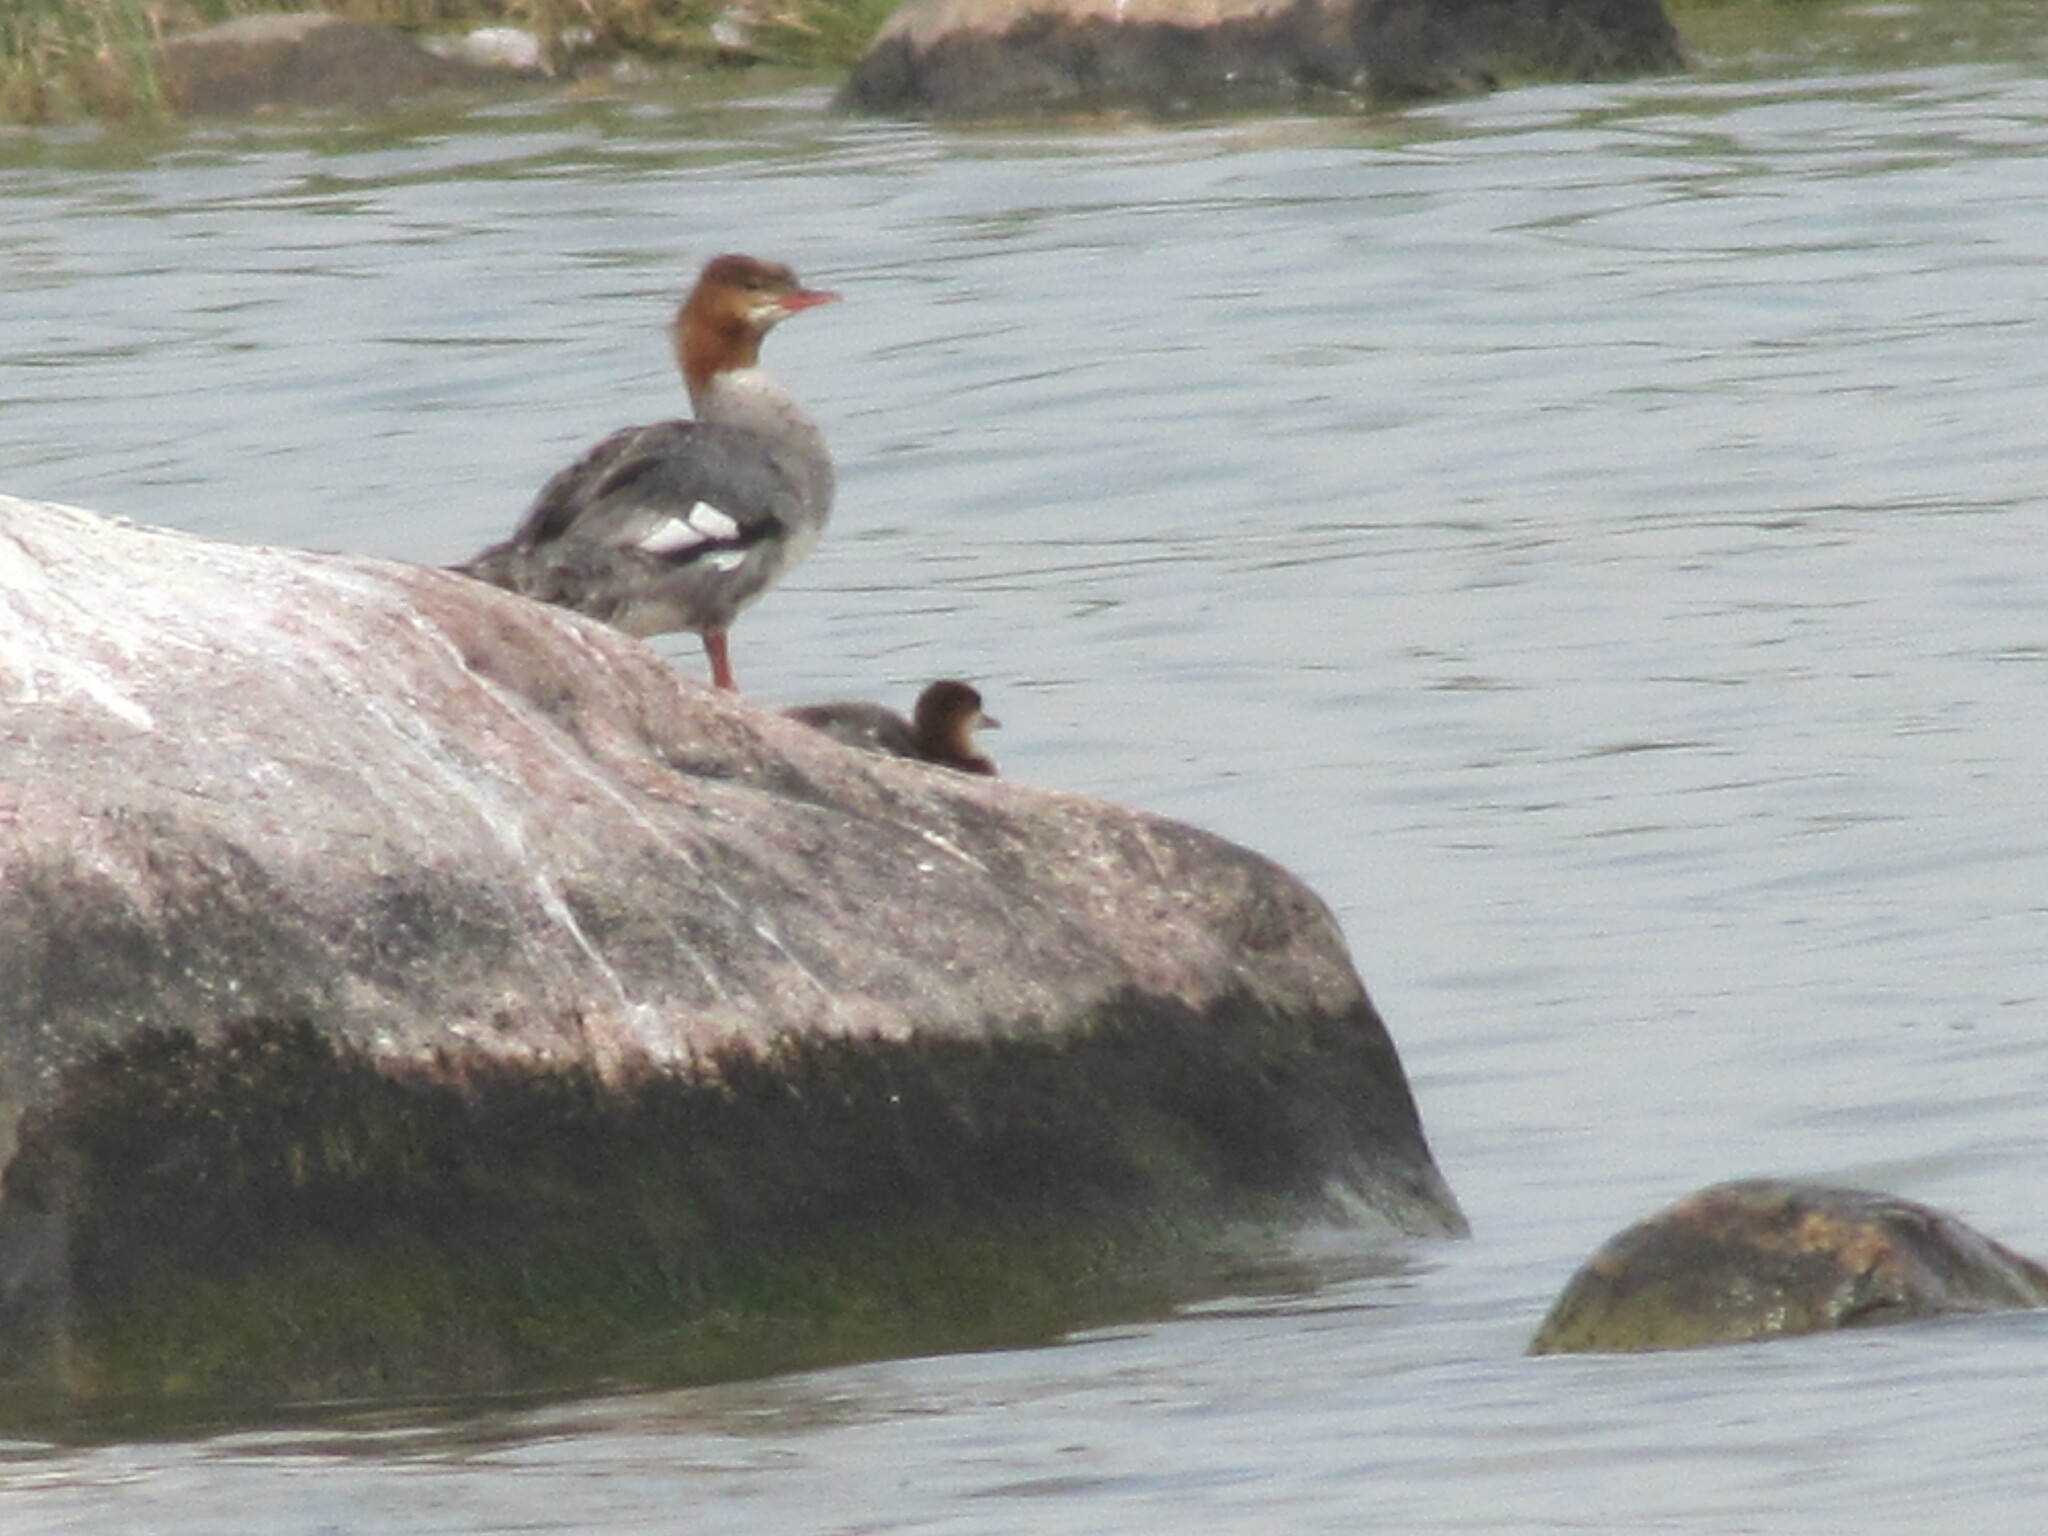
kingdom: Animalia
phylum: Chordata
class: Aves
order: Anseriformes
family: Anatidae
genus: Mergus
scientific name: Mergus merganser
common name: Common merganser
